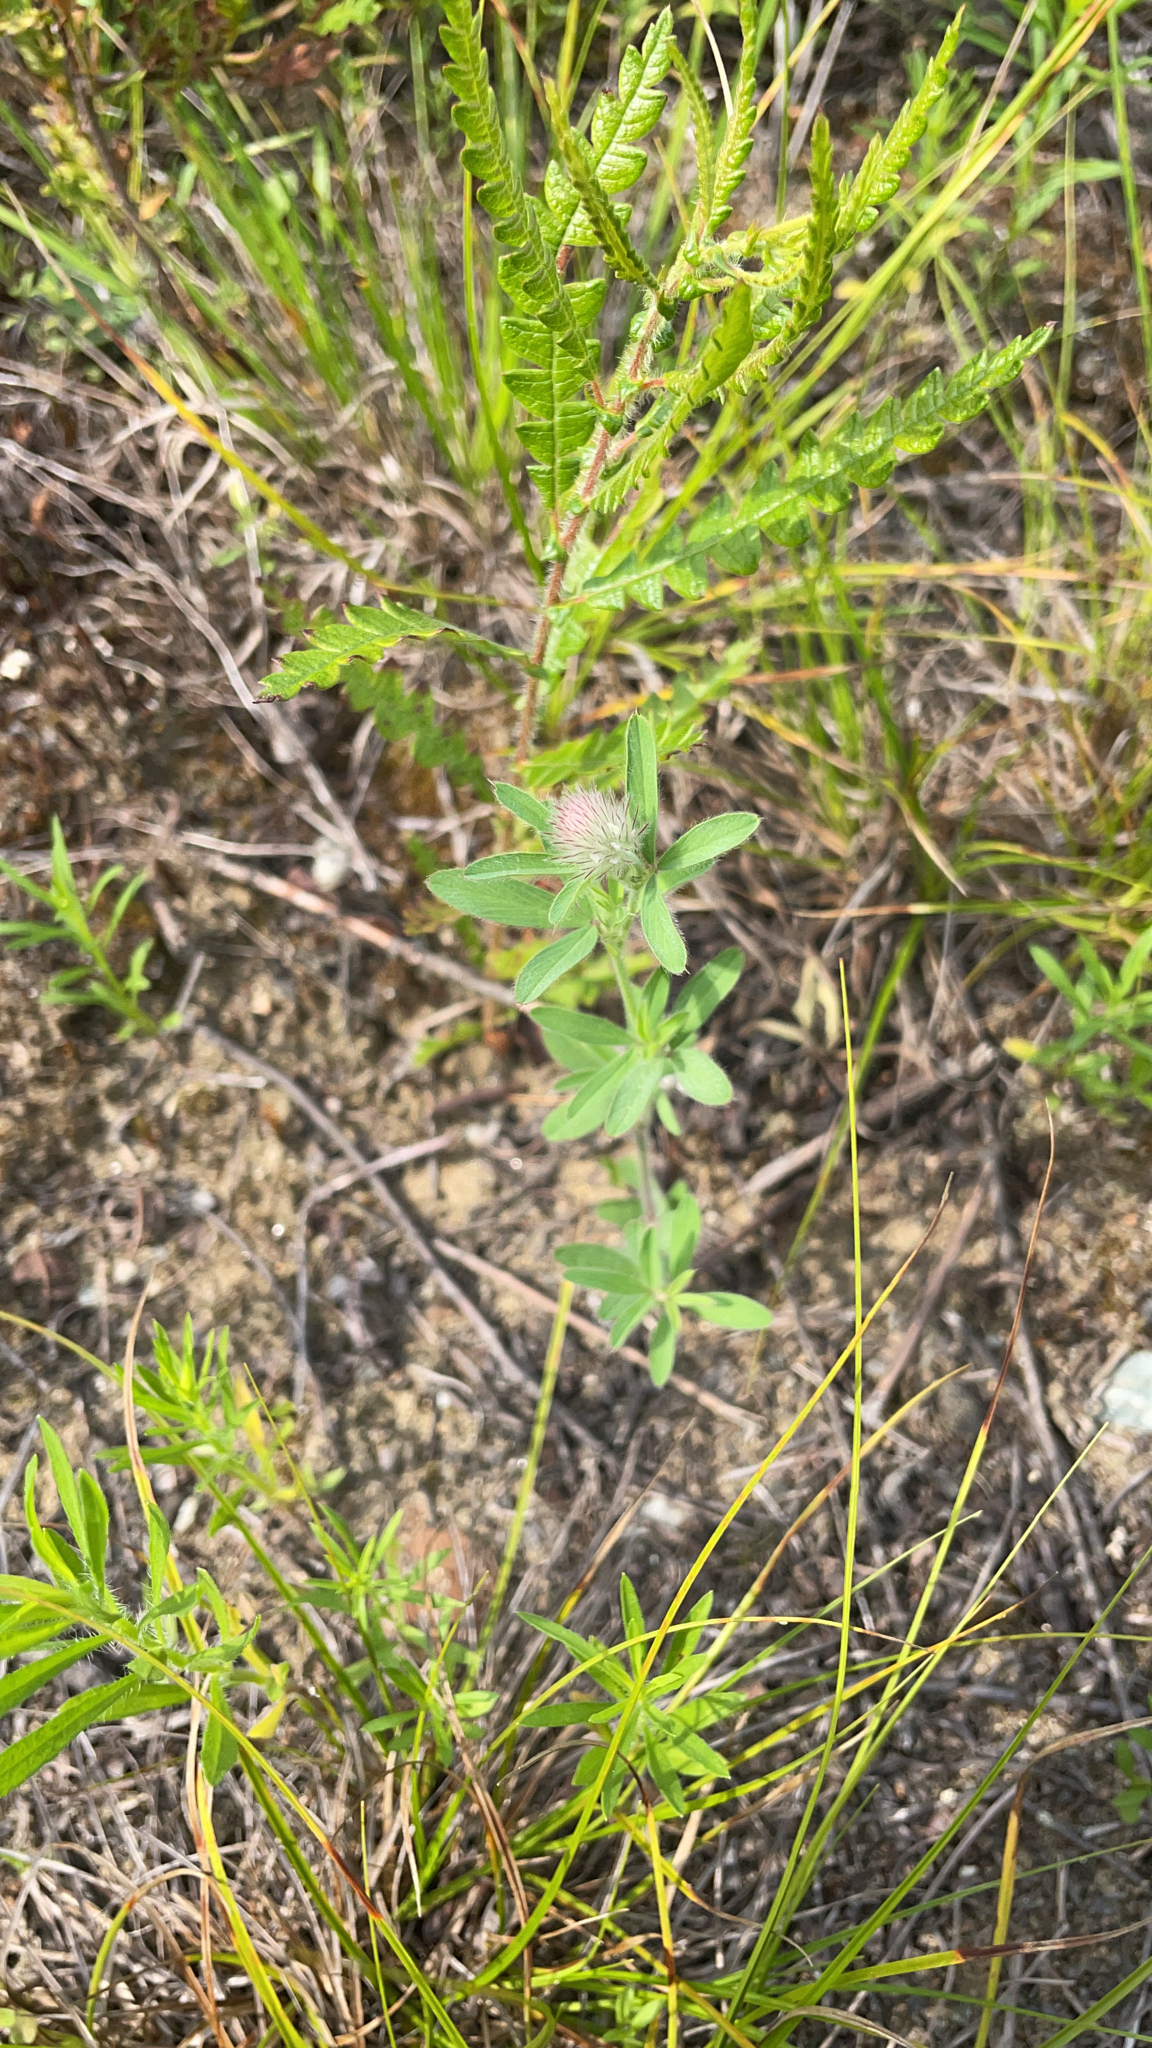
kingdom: Plantae
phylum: Tracheophyta
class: Magnoliopsida
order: Fabales
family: Fabaceae
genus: Trifolium
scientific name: Trifolium arvense
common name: Hare's-foot clover
